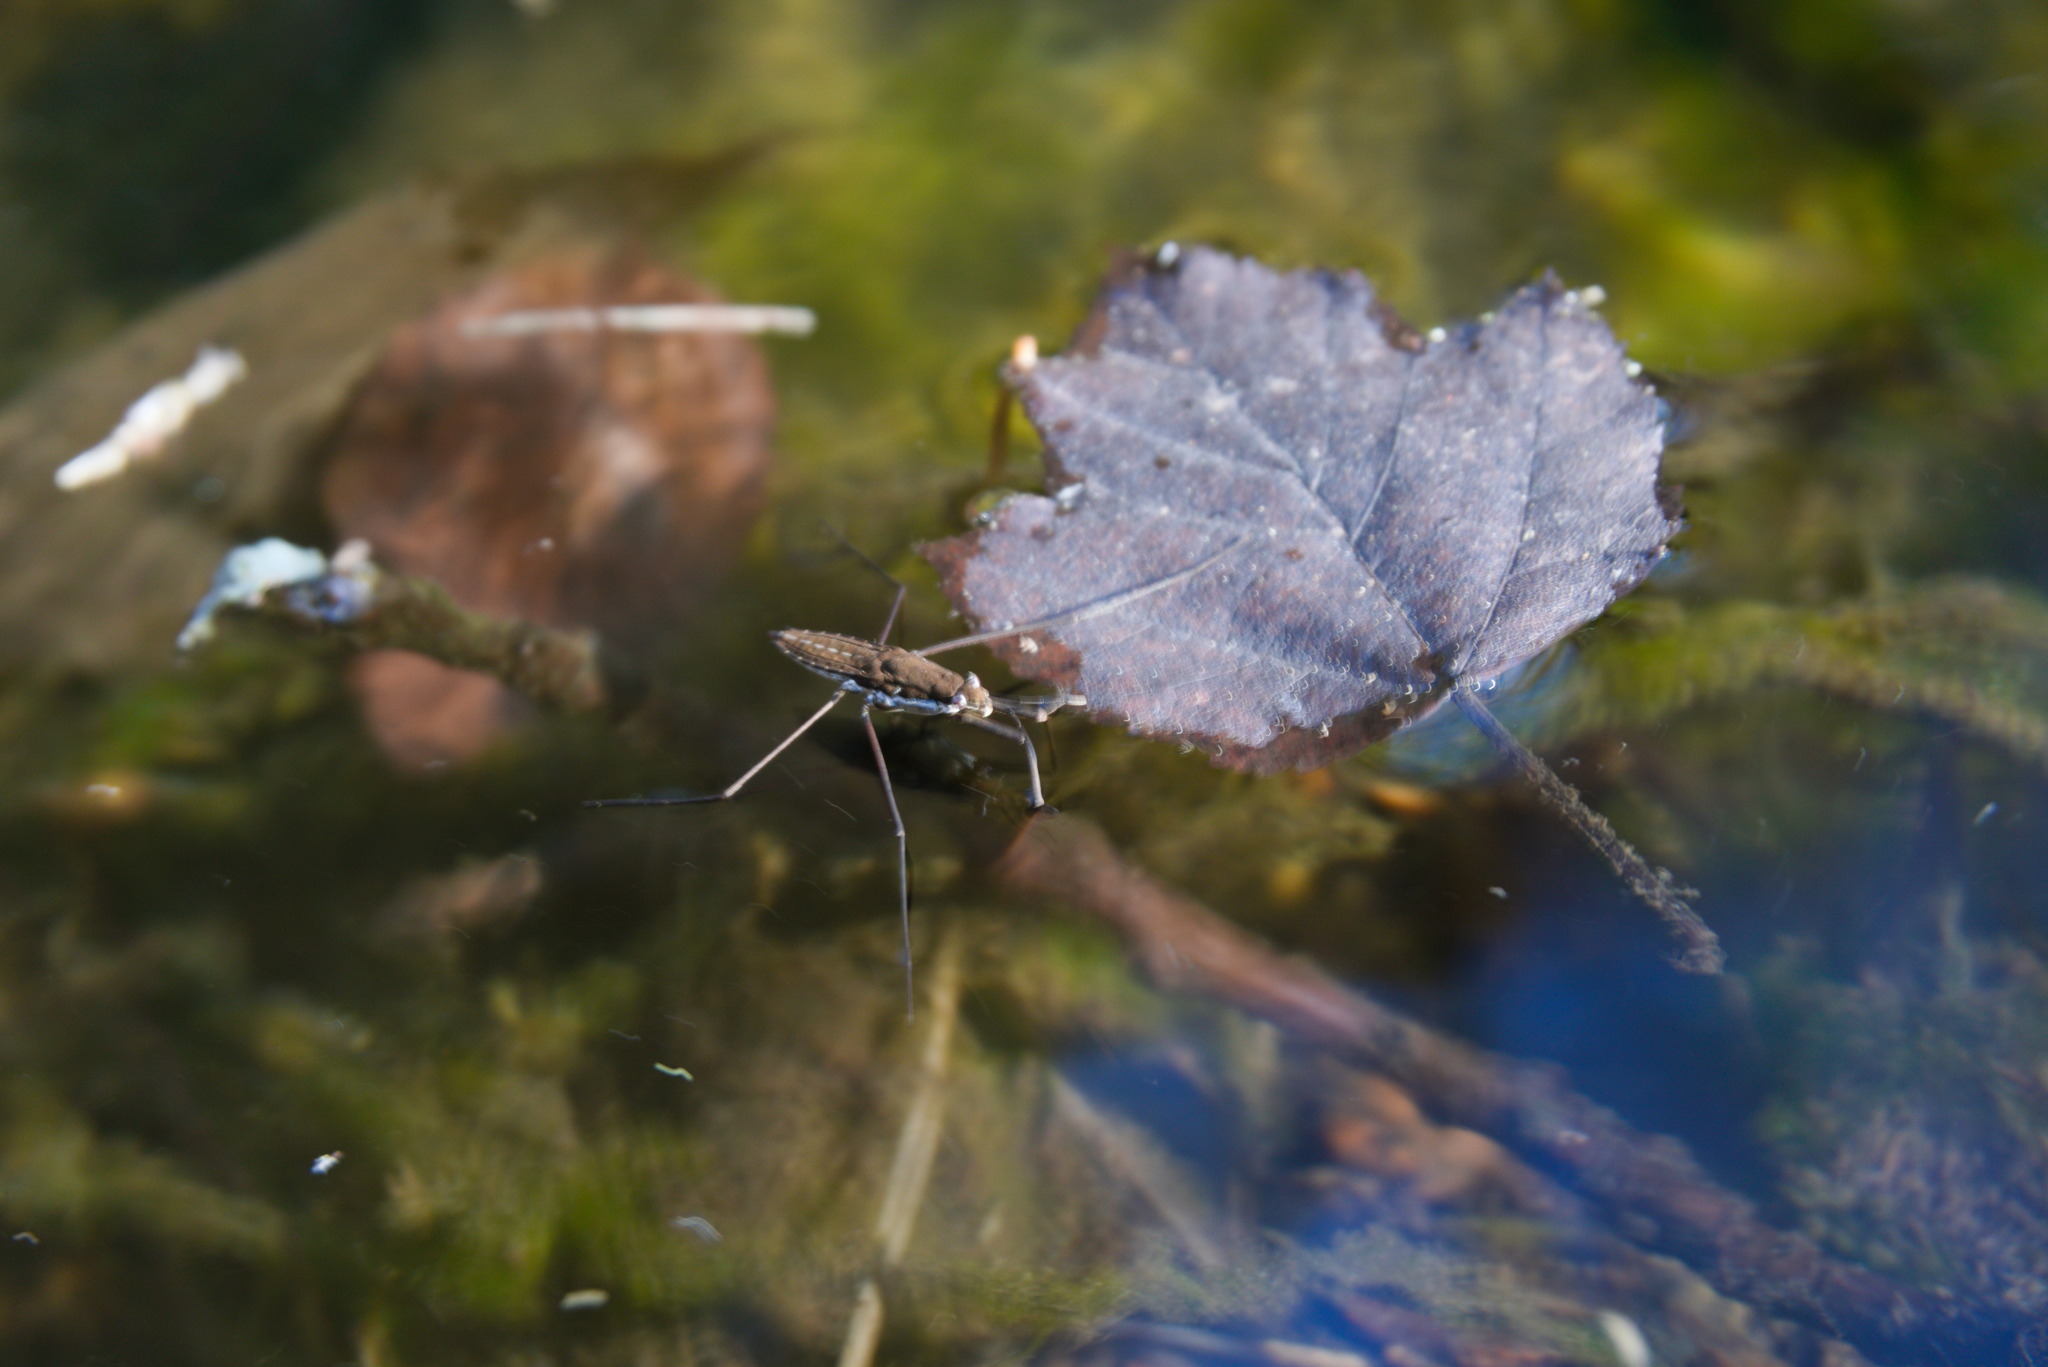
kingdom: Animalia
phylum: Arthropoda
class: Insecta
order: Hemiptera
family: Gerridae
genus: Aquarius
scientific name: Aquarius remigis
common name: Common water strider
